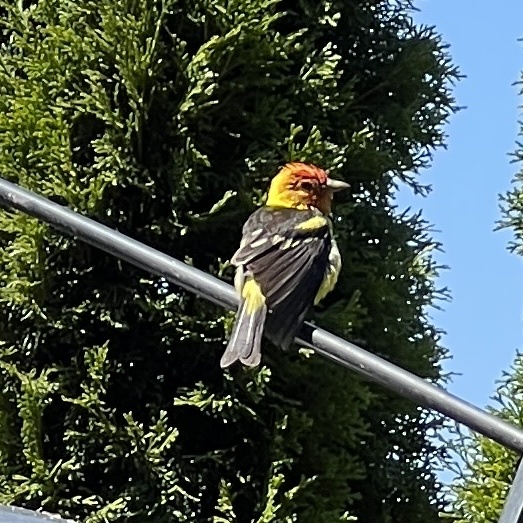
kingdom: Animalia
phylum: Chordata
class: Aves
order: Passeriformes
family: Cardinalidae
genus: Piranga
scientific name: Piranga ludoviciana
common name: Western tanager
